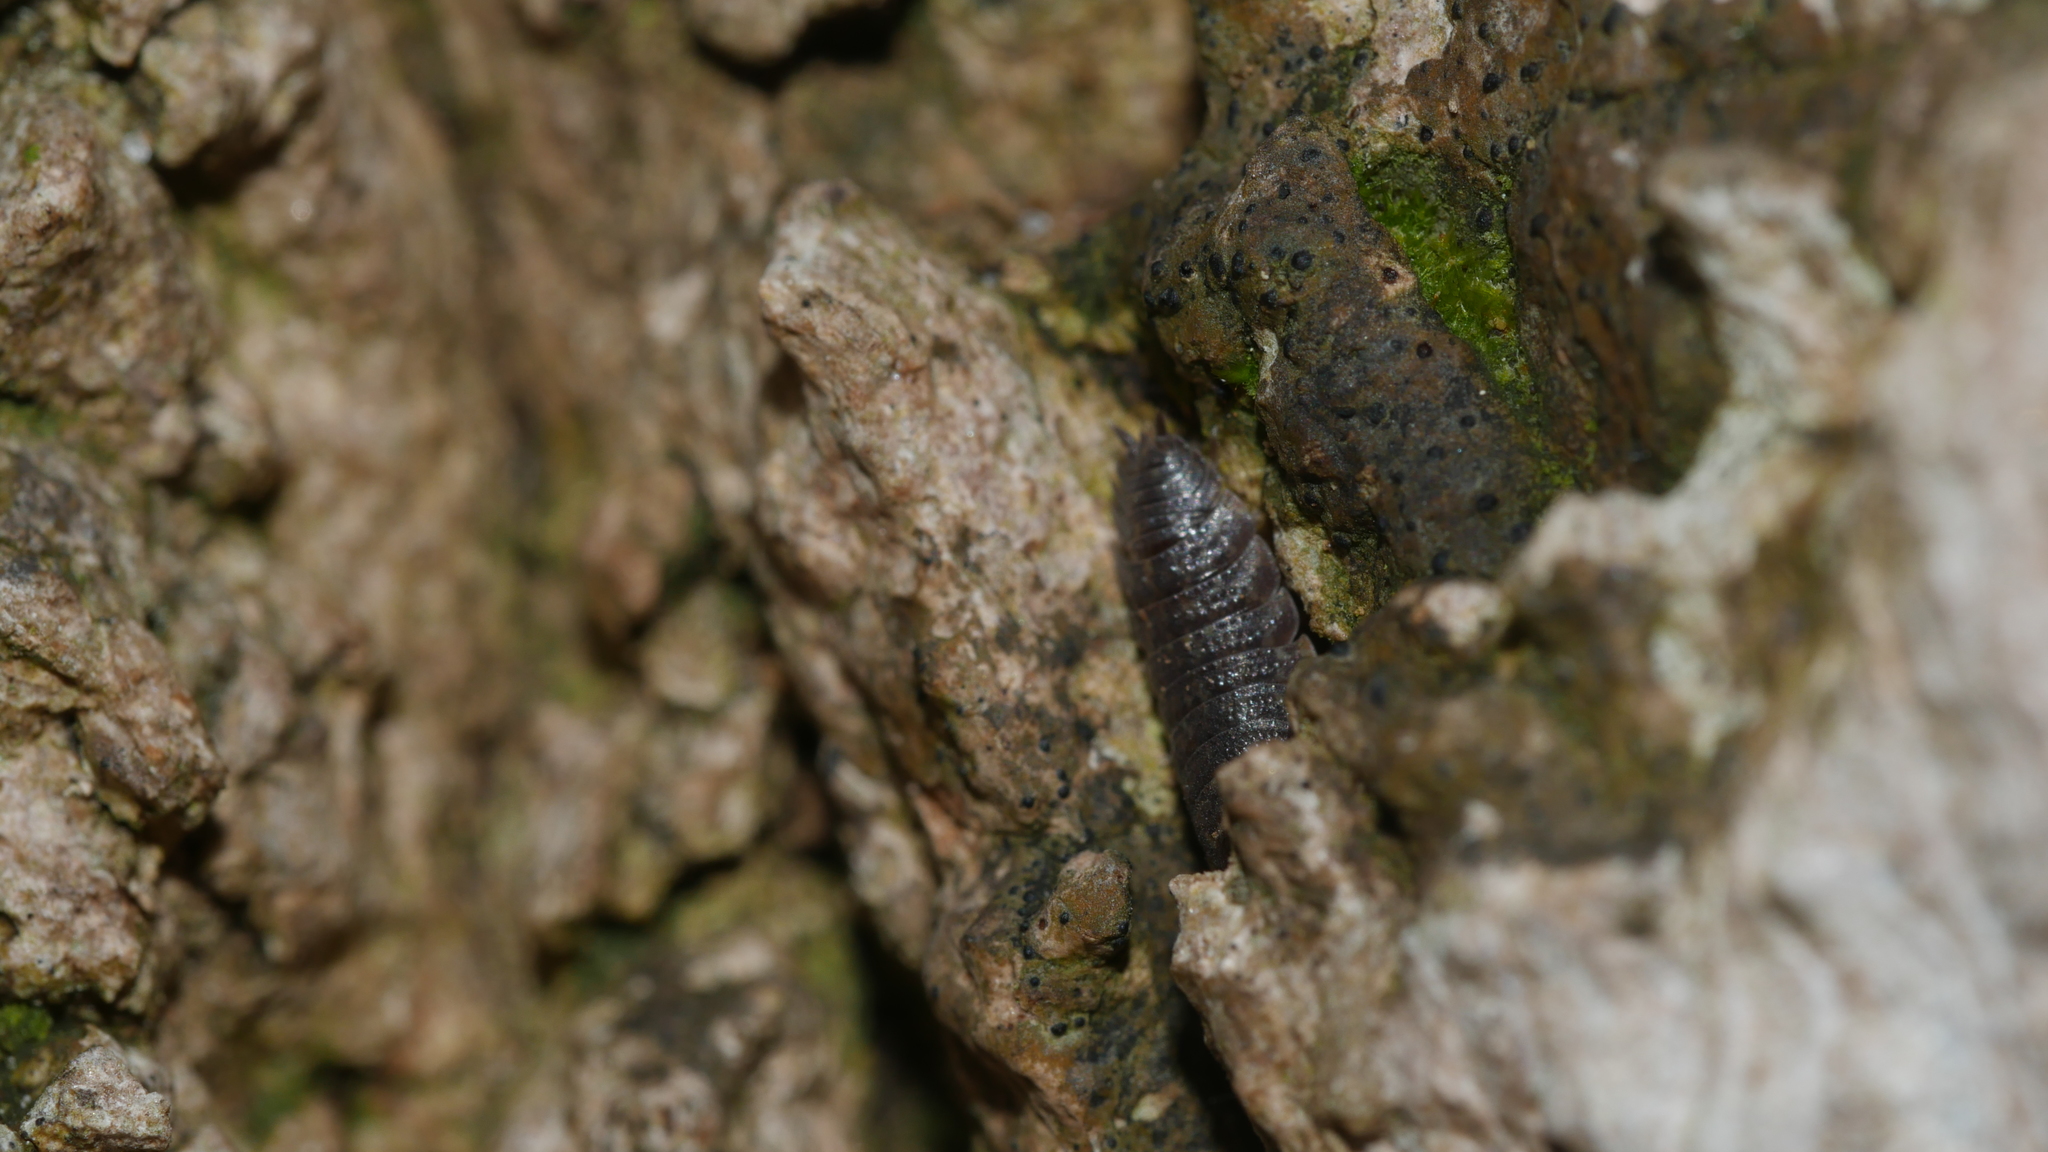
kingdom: Animalia
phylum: Arthropoda
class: Malacostraca
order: Isopoda
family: Porcellionidae
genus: Porcellio
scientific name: Porcellio scaber
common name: Common rough woodlouse
